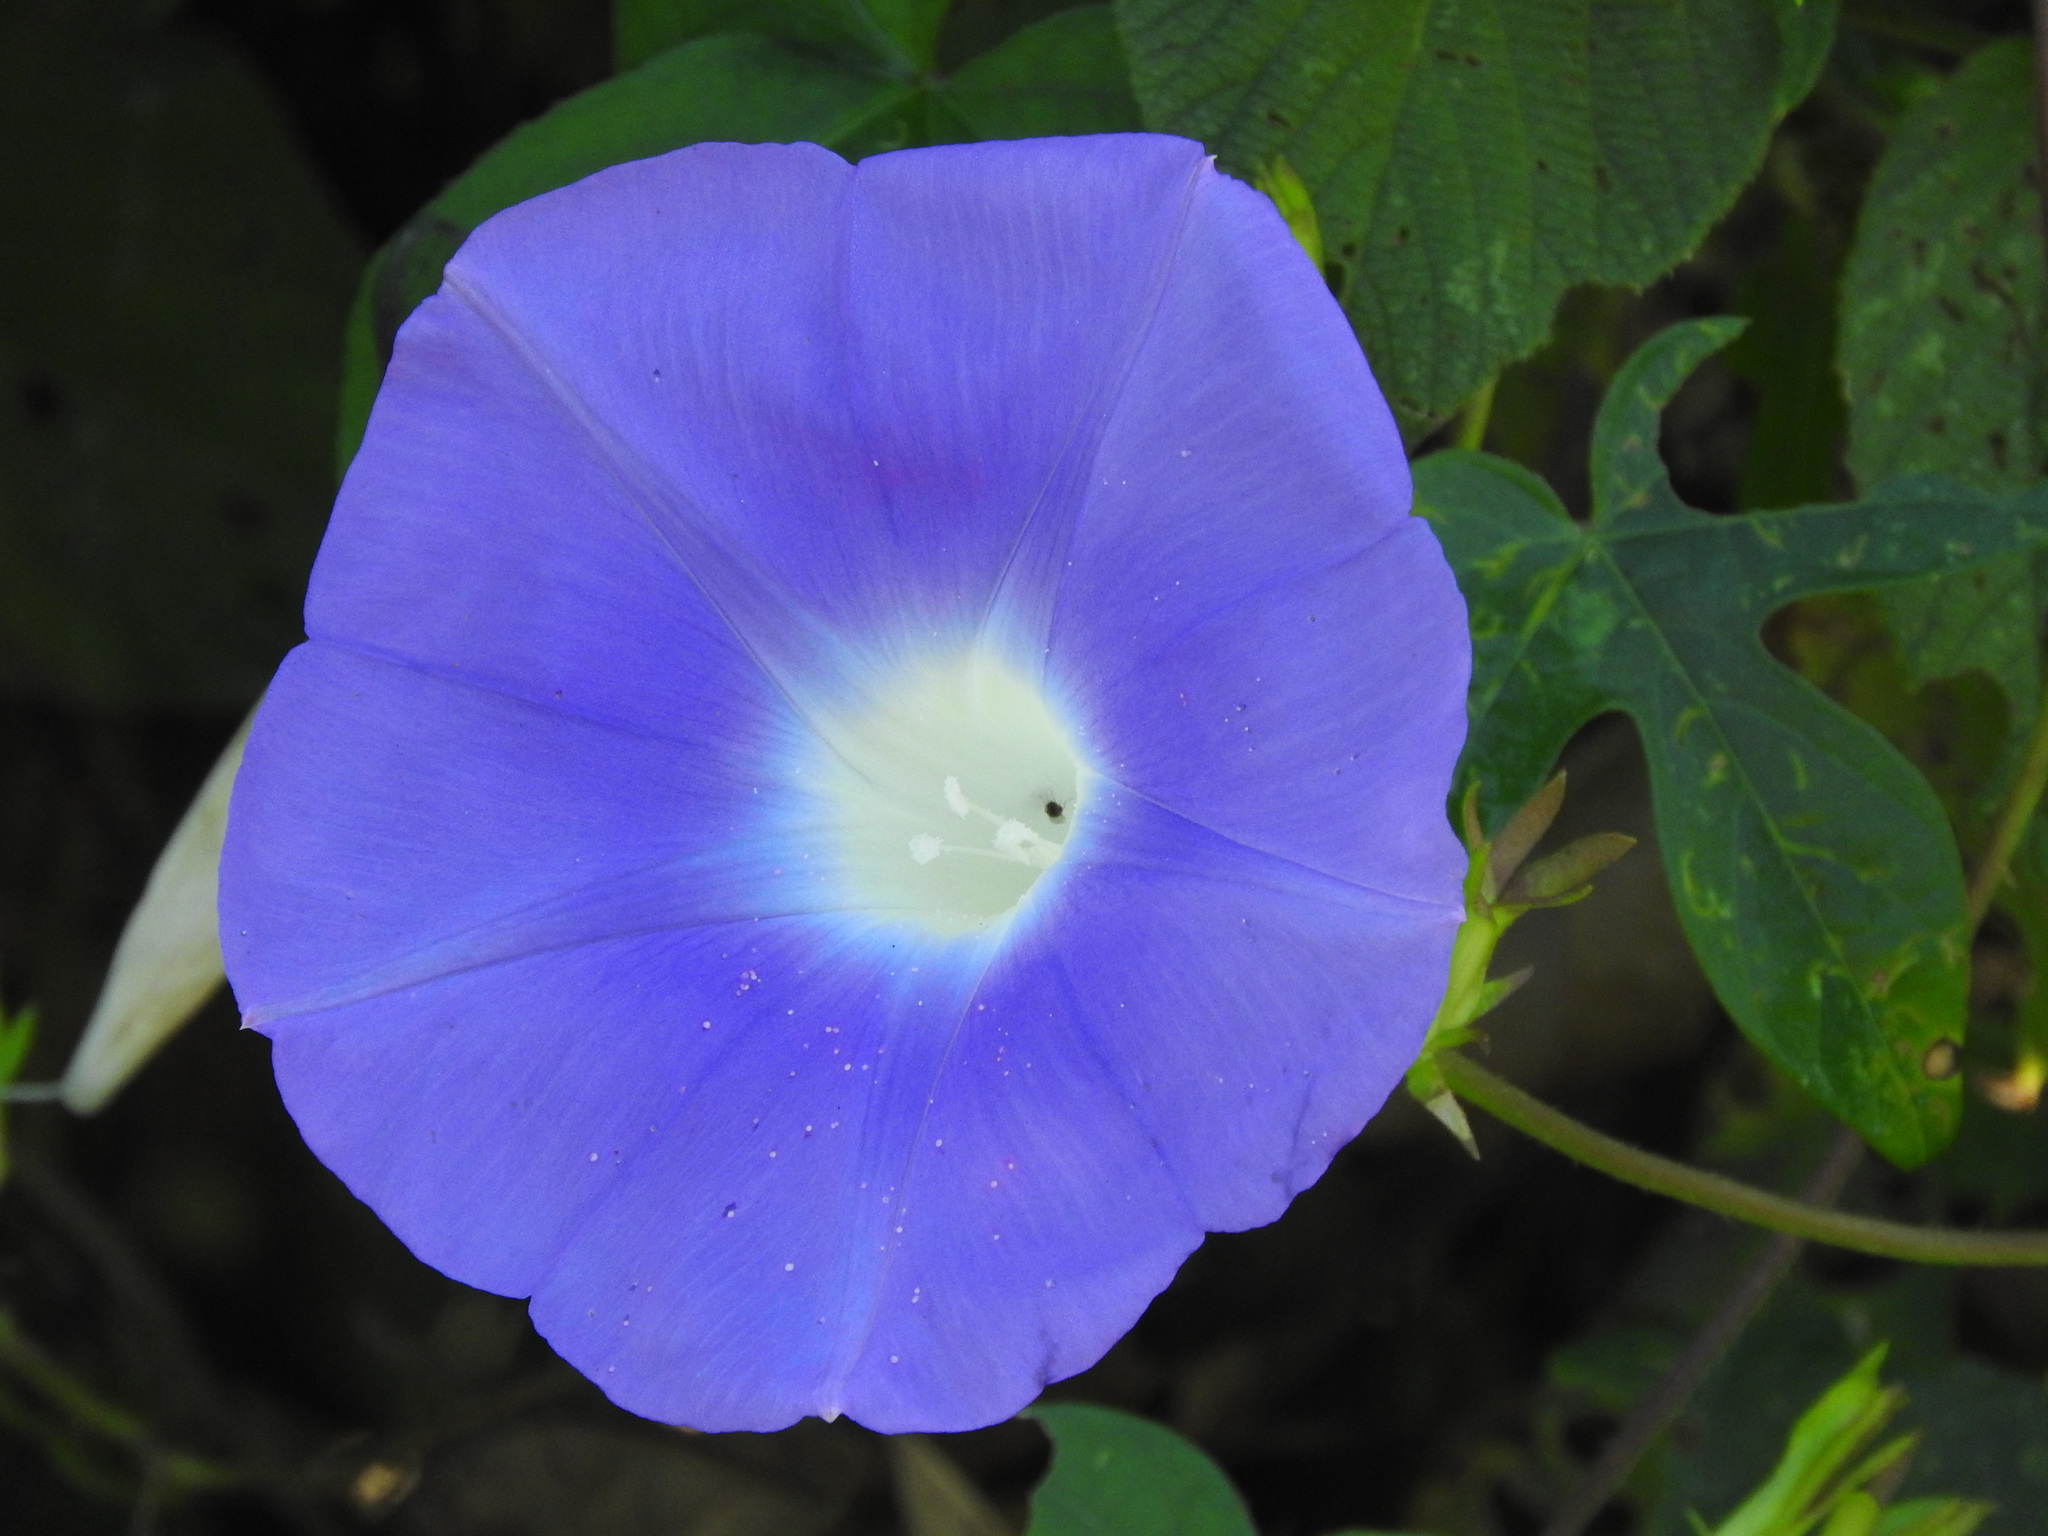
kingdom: Plantae
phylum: Tracheophyta
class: Magnoliopsida
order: Solanales
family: Convolvulaceae
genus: Ipomoea
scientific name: Ipomoea nil
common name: Japanese morning-glory
